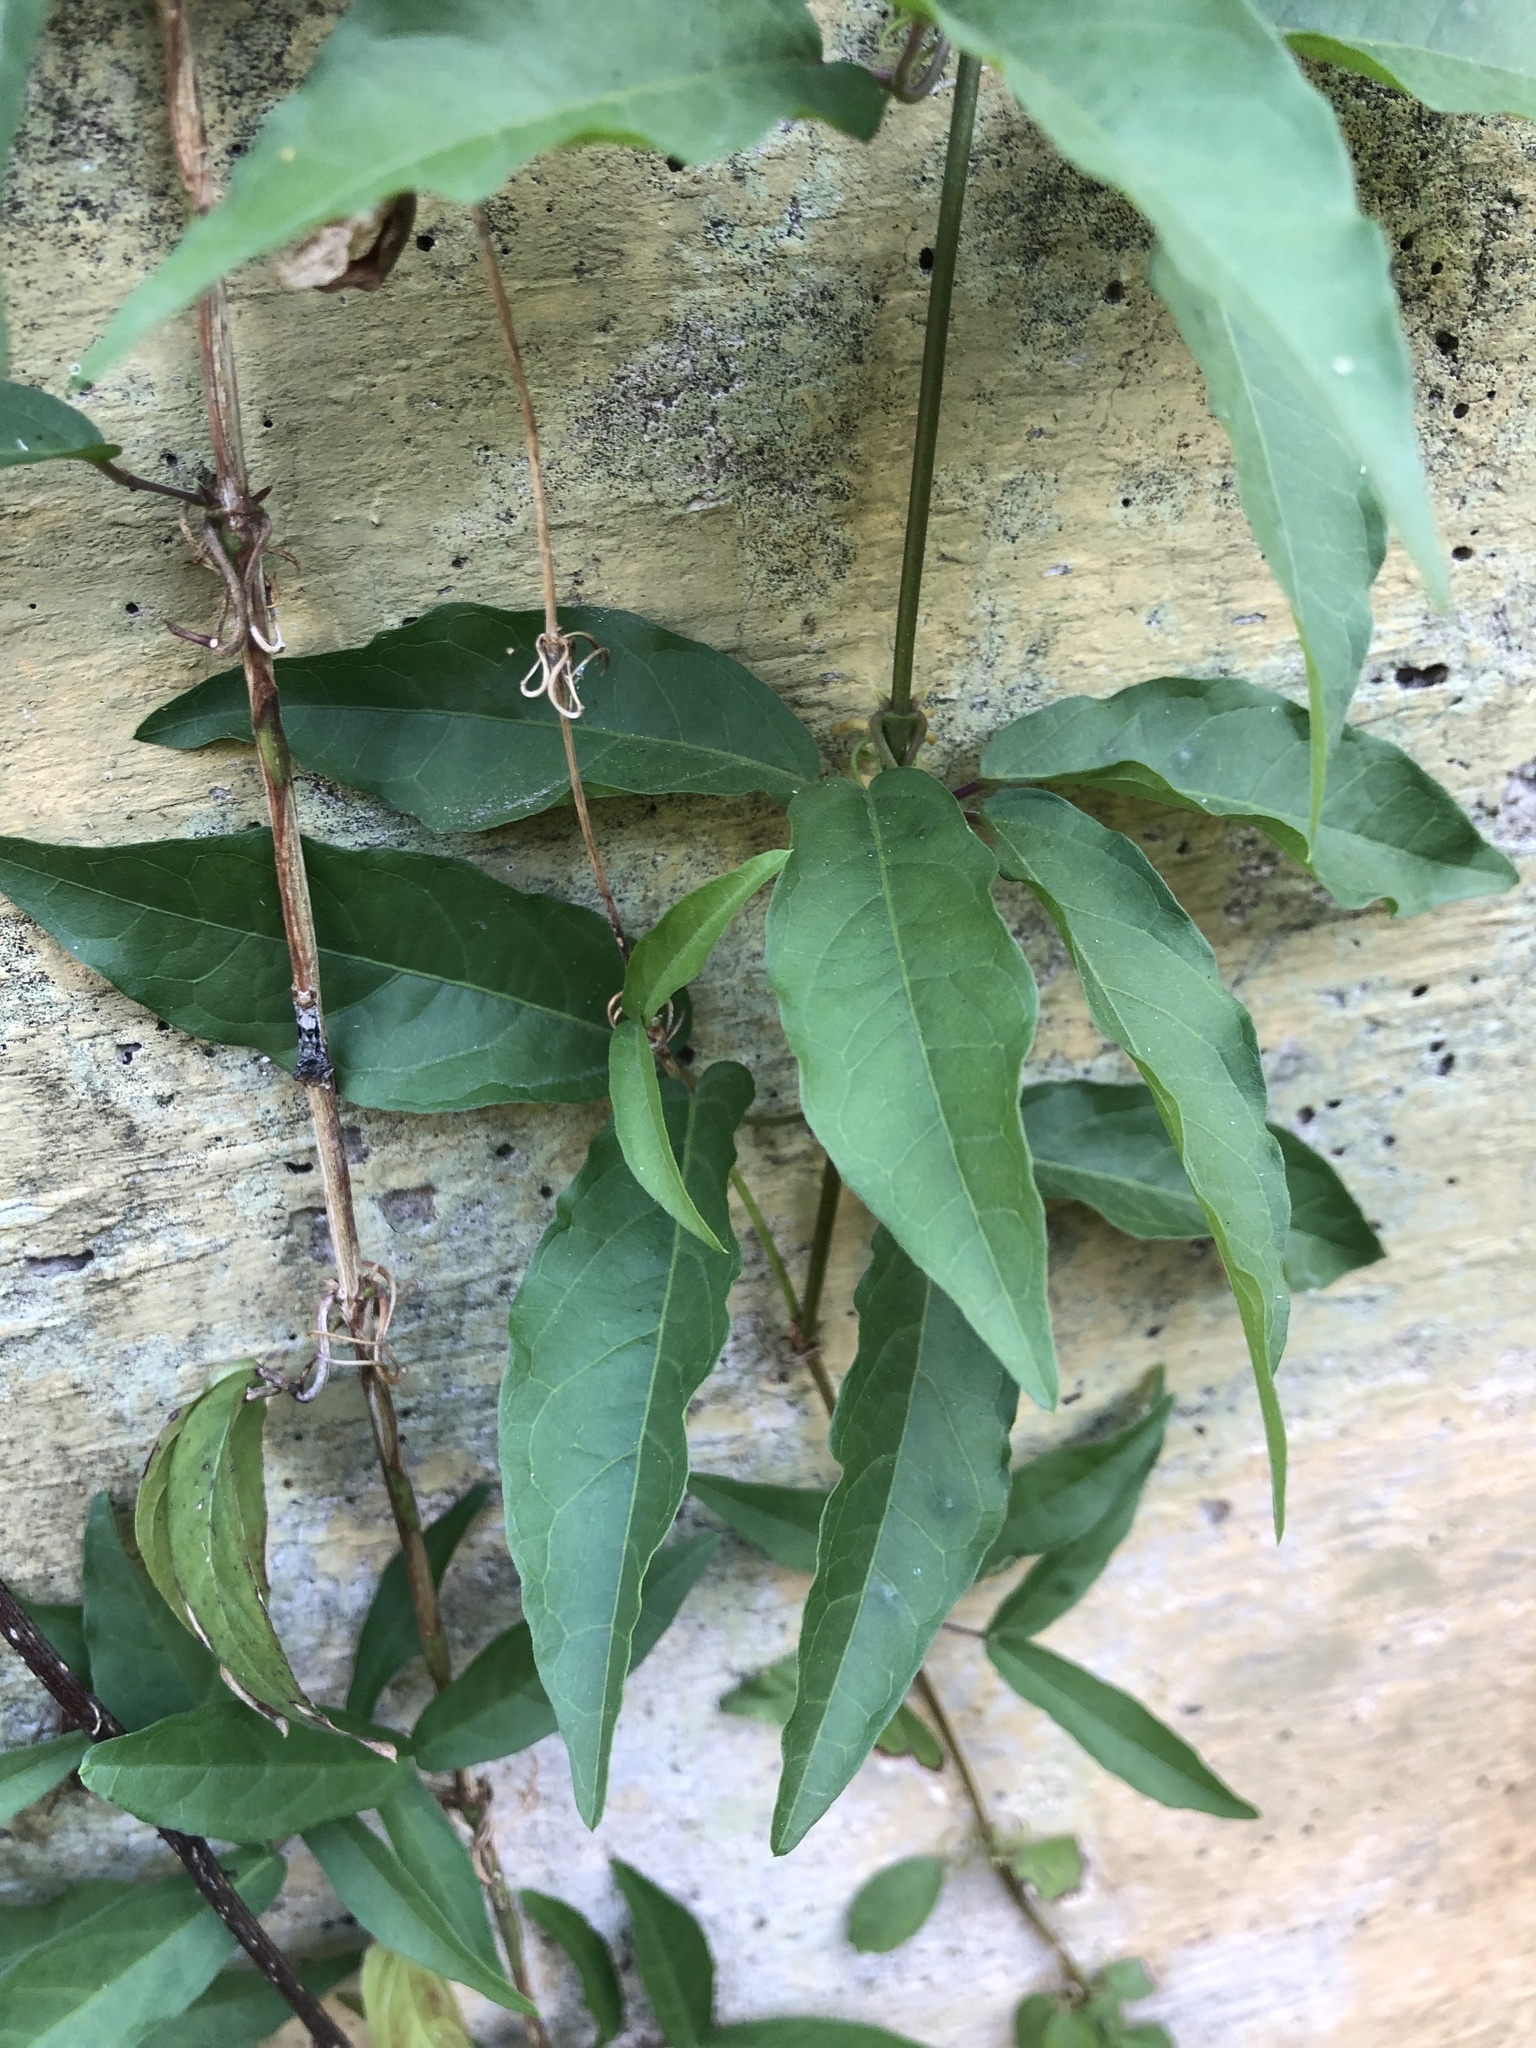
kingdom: Plantae
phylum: Tracheophyta
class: Magnoliopsida
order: Lamiales
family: Bignoniaceae
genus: Dolichandra
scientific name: Dolichandra unguis-cati
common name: Catclaw vine
